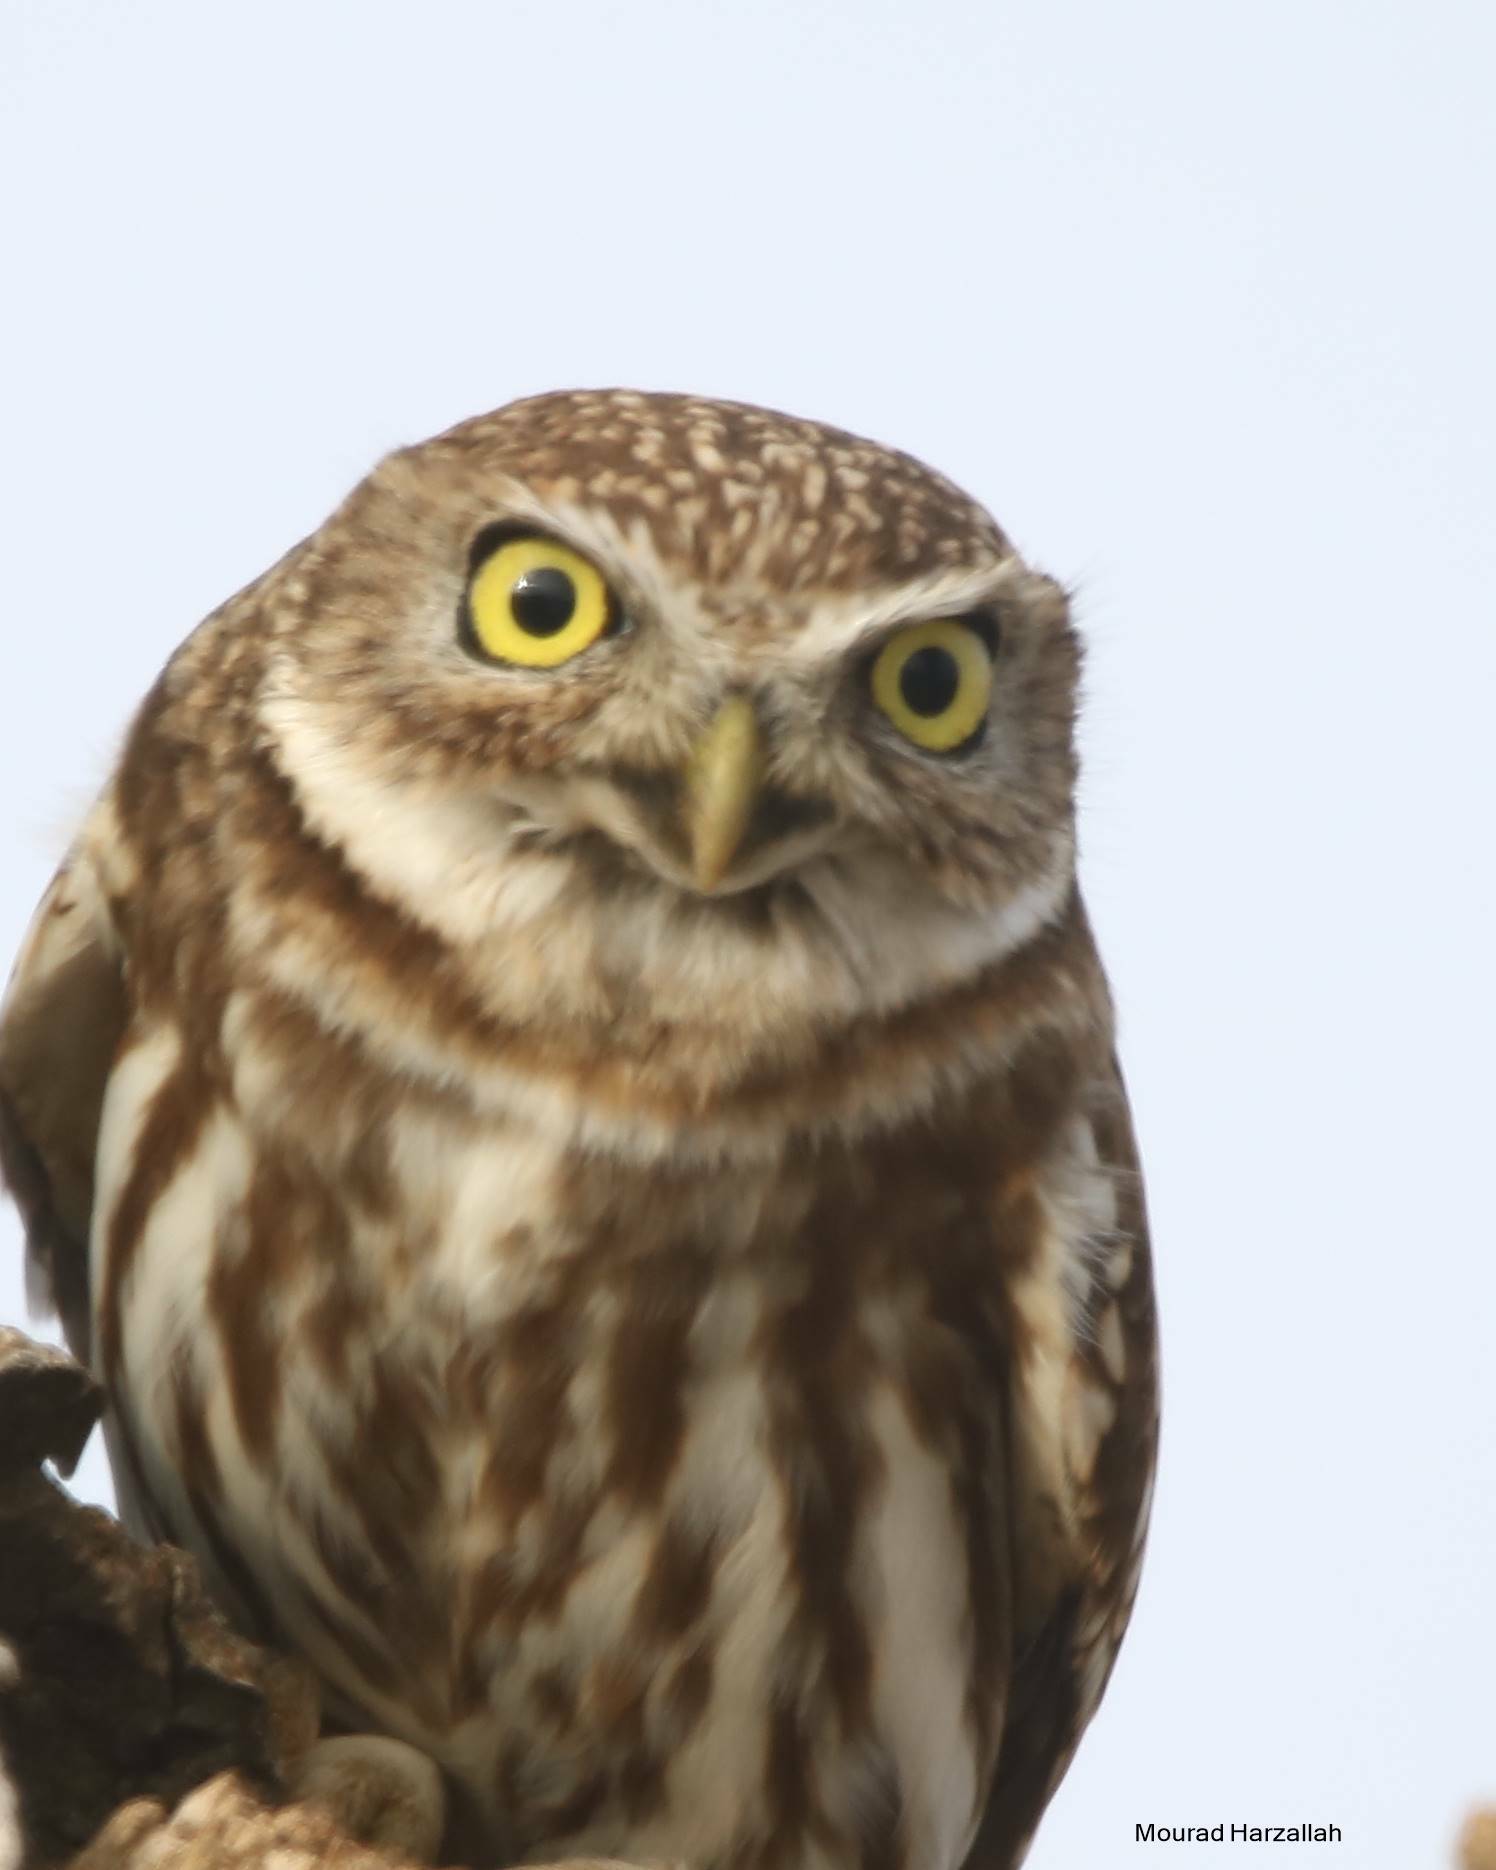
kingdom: Animalia
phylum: Chordata
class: Aves
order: Strigiformes
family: Strigidae
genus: Athene
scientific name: Athene noctua
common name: Little owl
